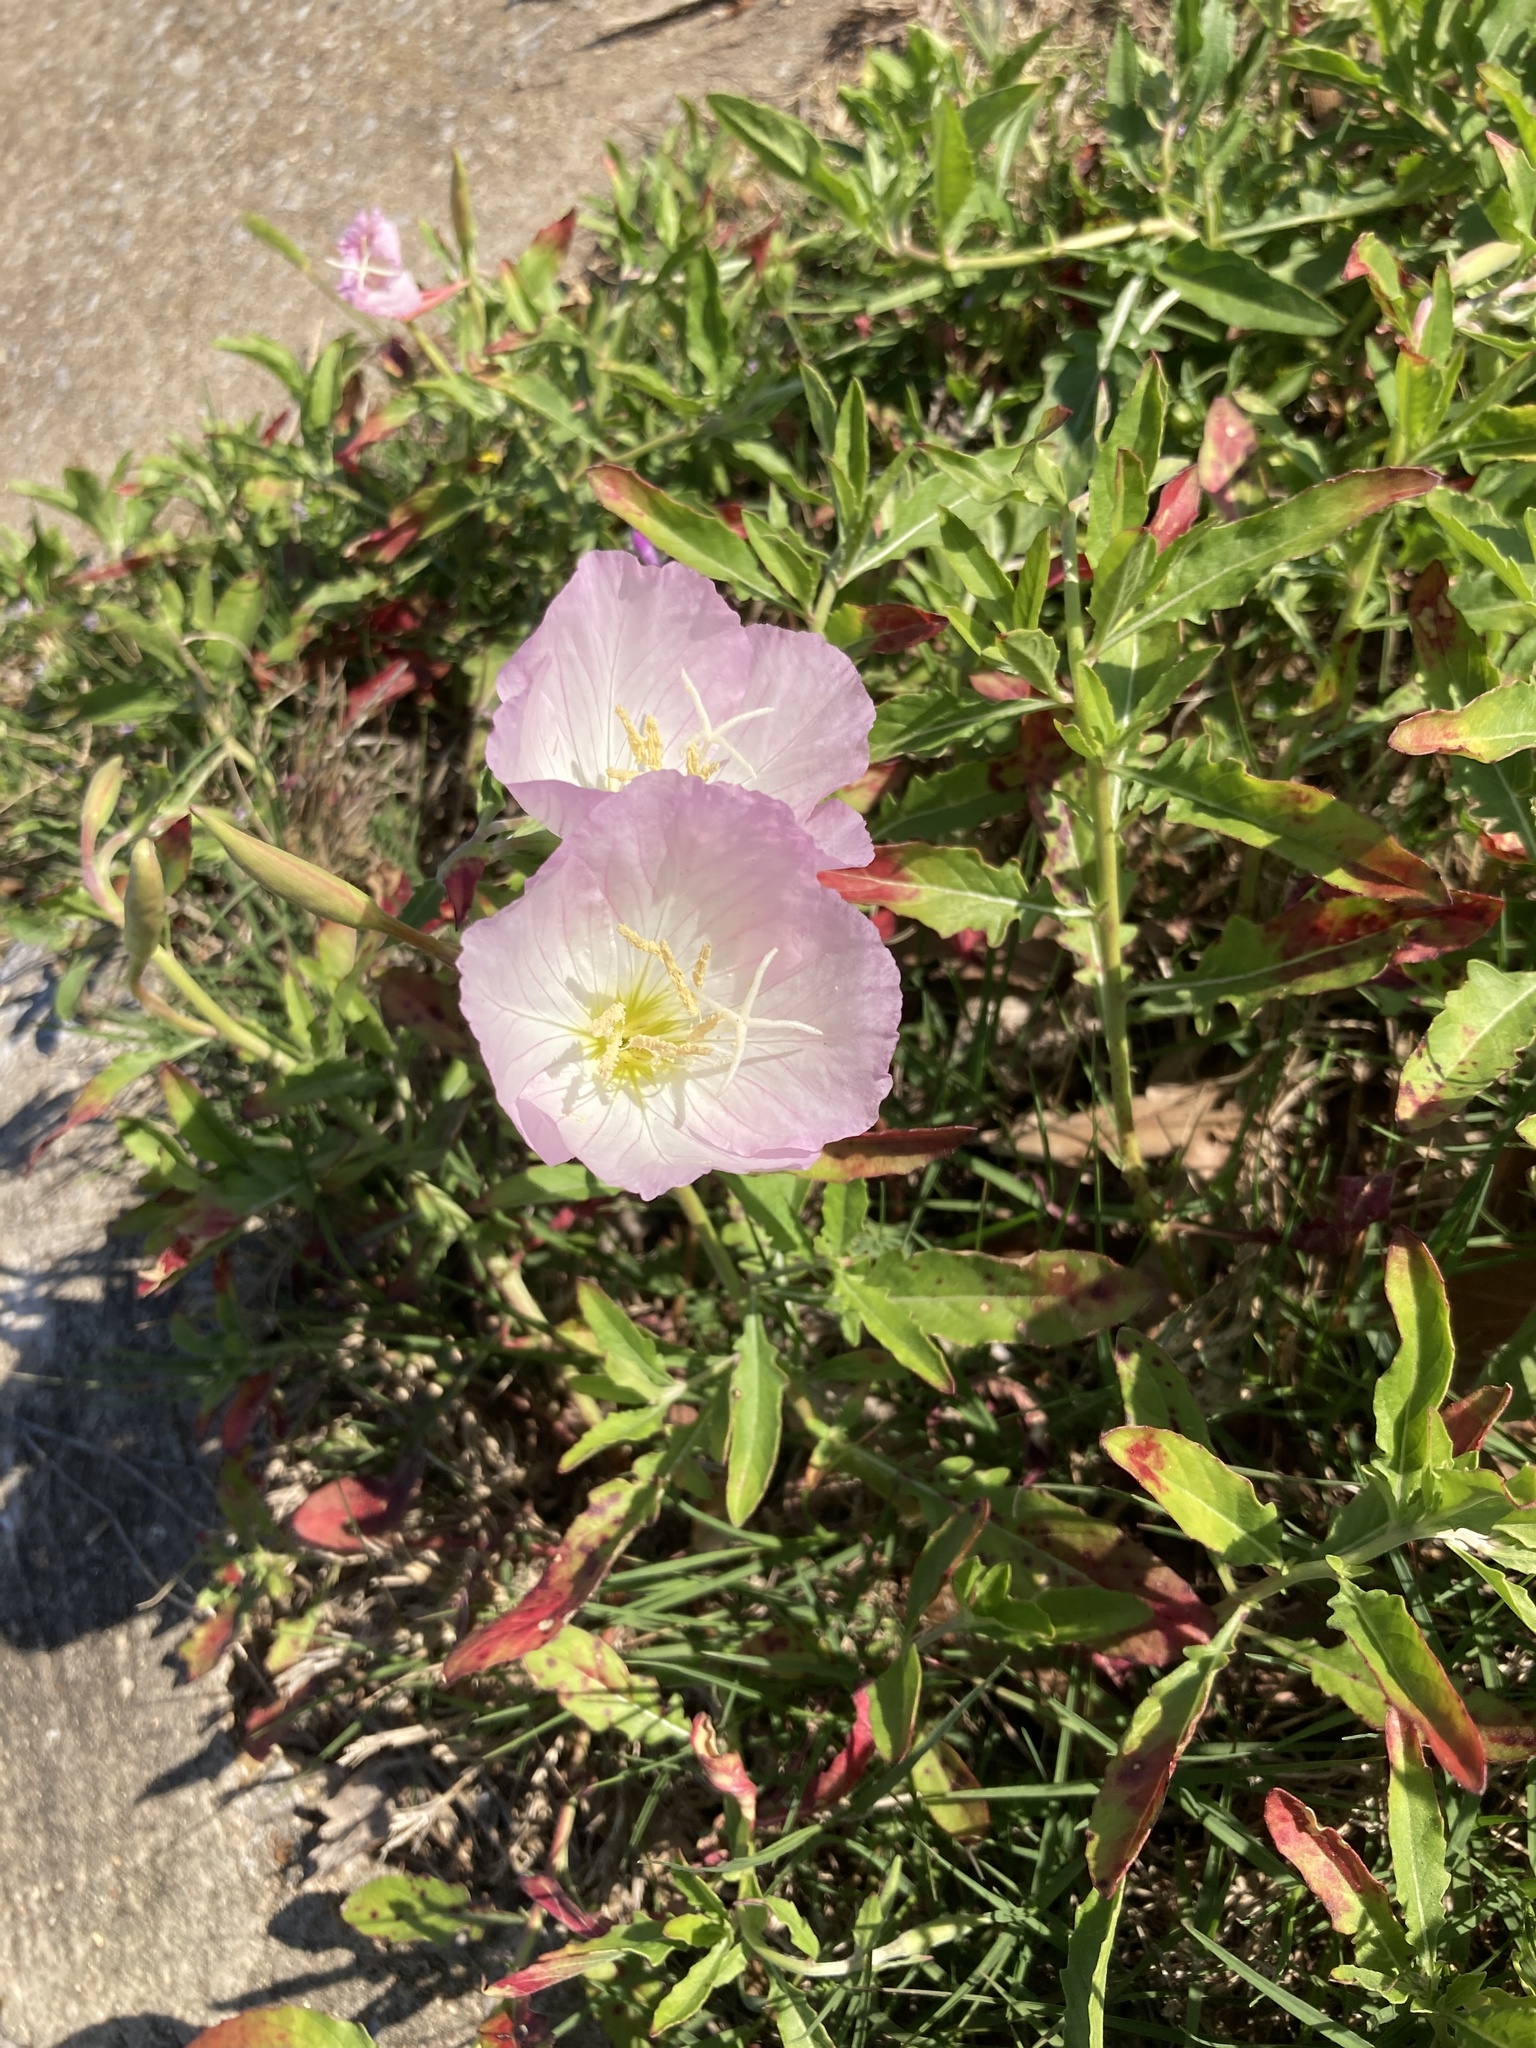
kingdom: Plantae
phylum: Tracheophyta
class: Magnoliopsida
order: Myrtales
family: Onagraceae
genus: Oenothera
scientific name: Oenothera speciosa
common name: White evening-primrose
